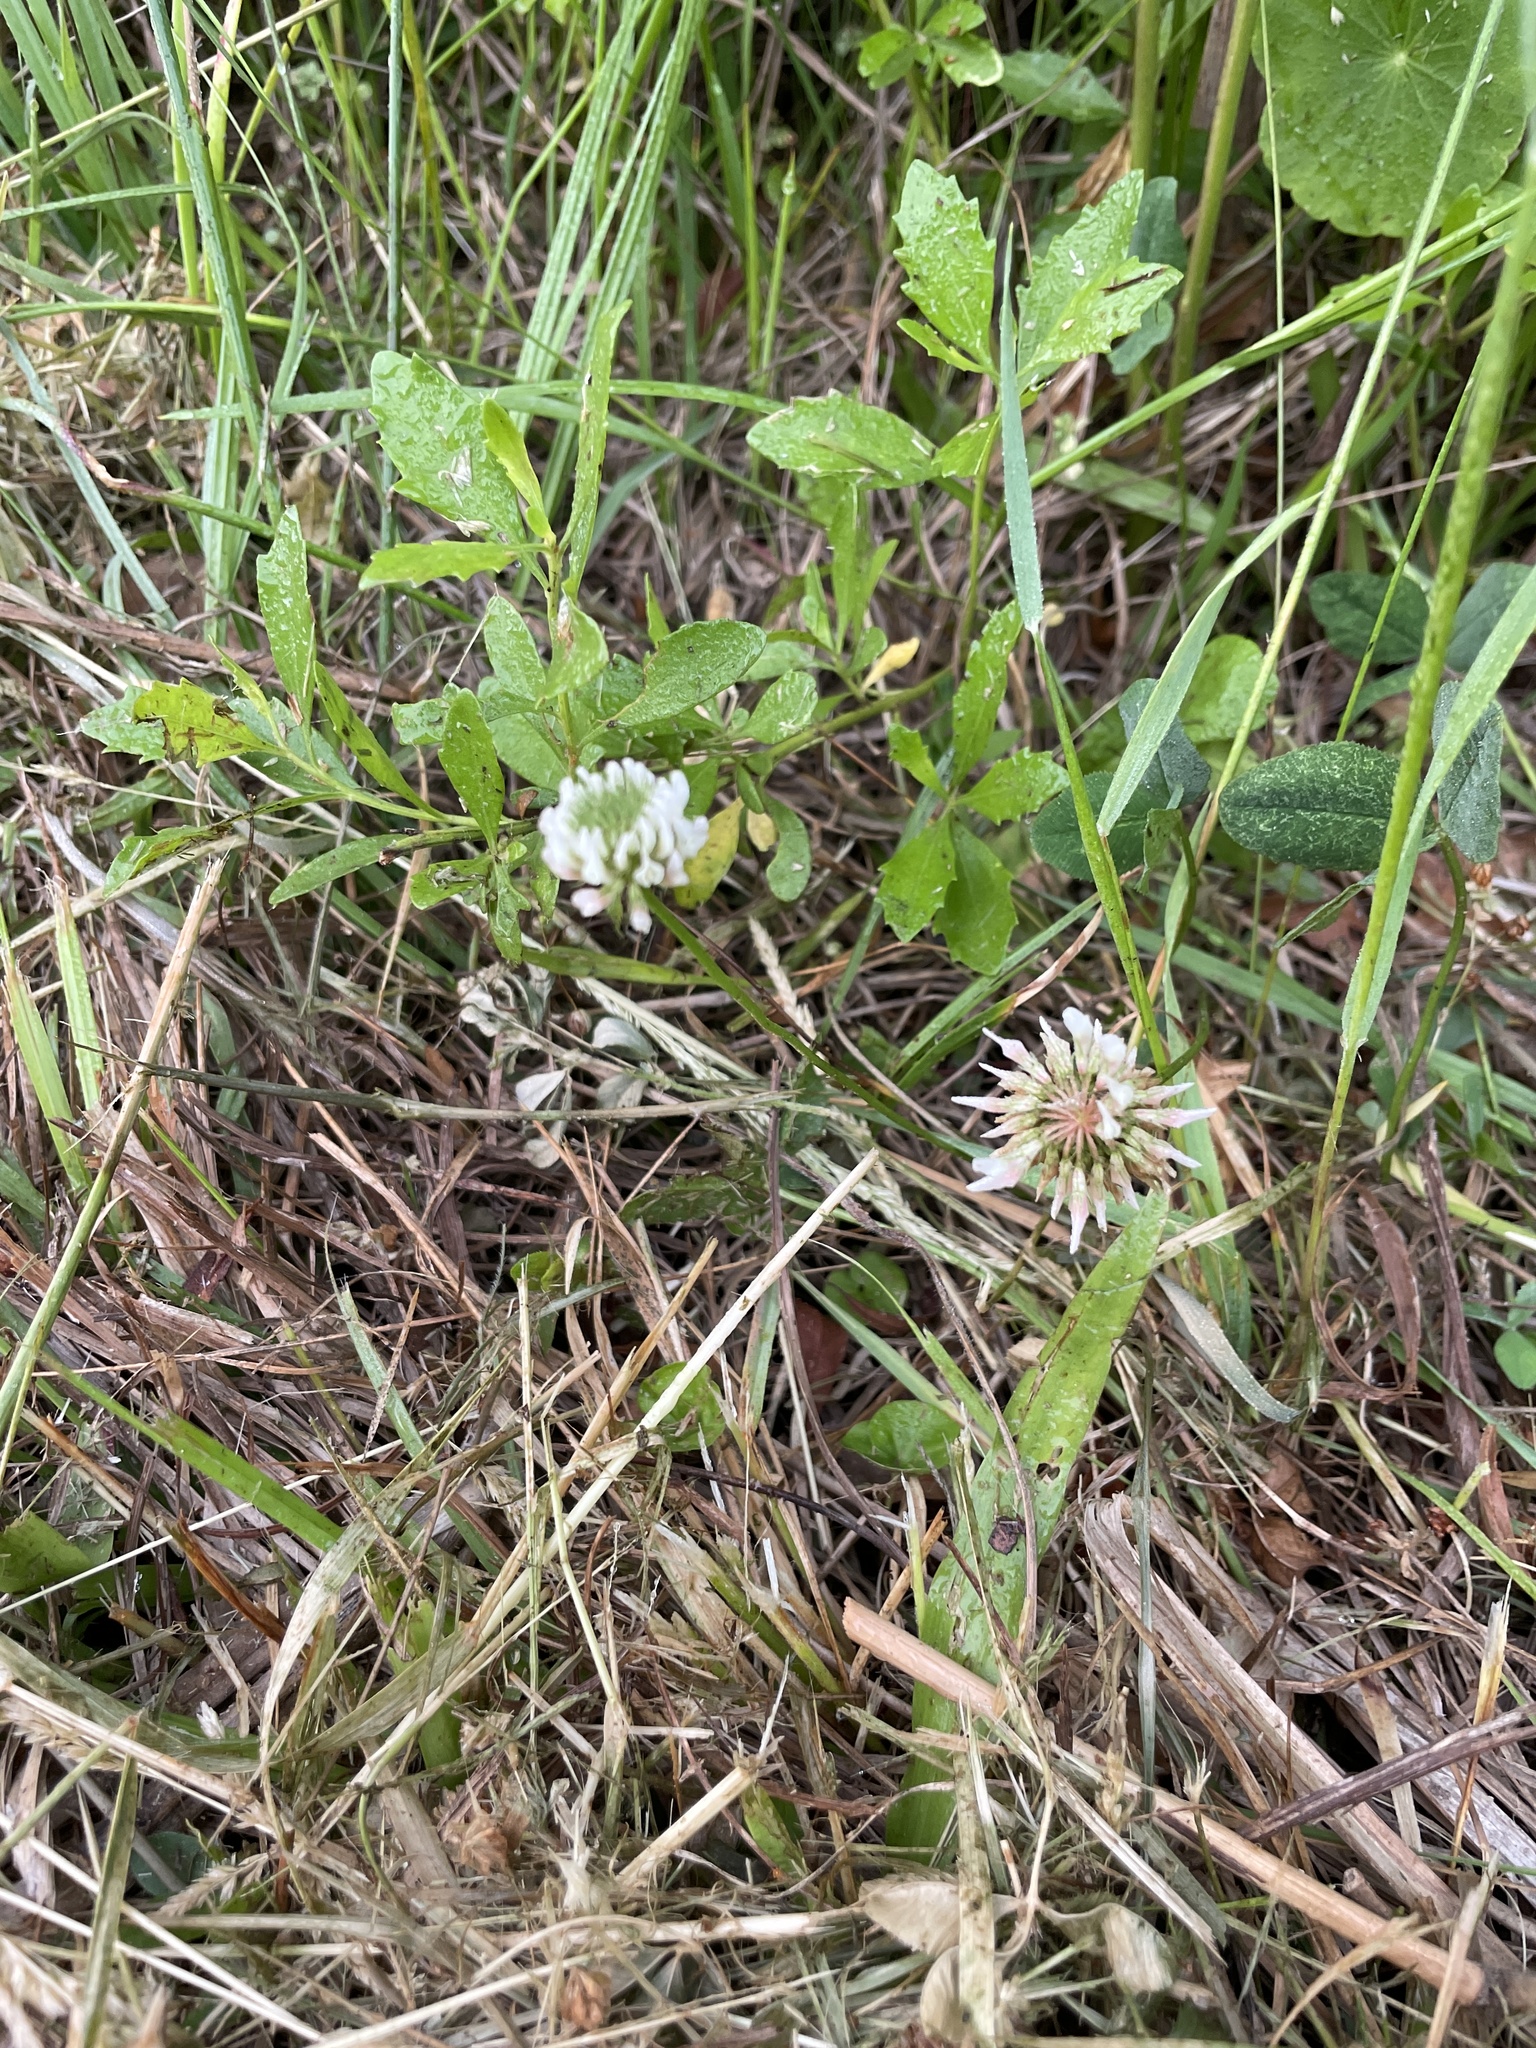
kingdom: Plantae
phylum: Tracheophyta
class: Magnoliopsida
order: Fabales
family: Fabaceae
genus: Trifolium
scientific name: Trifolium repens
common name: White clover
